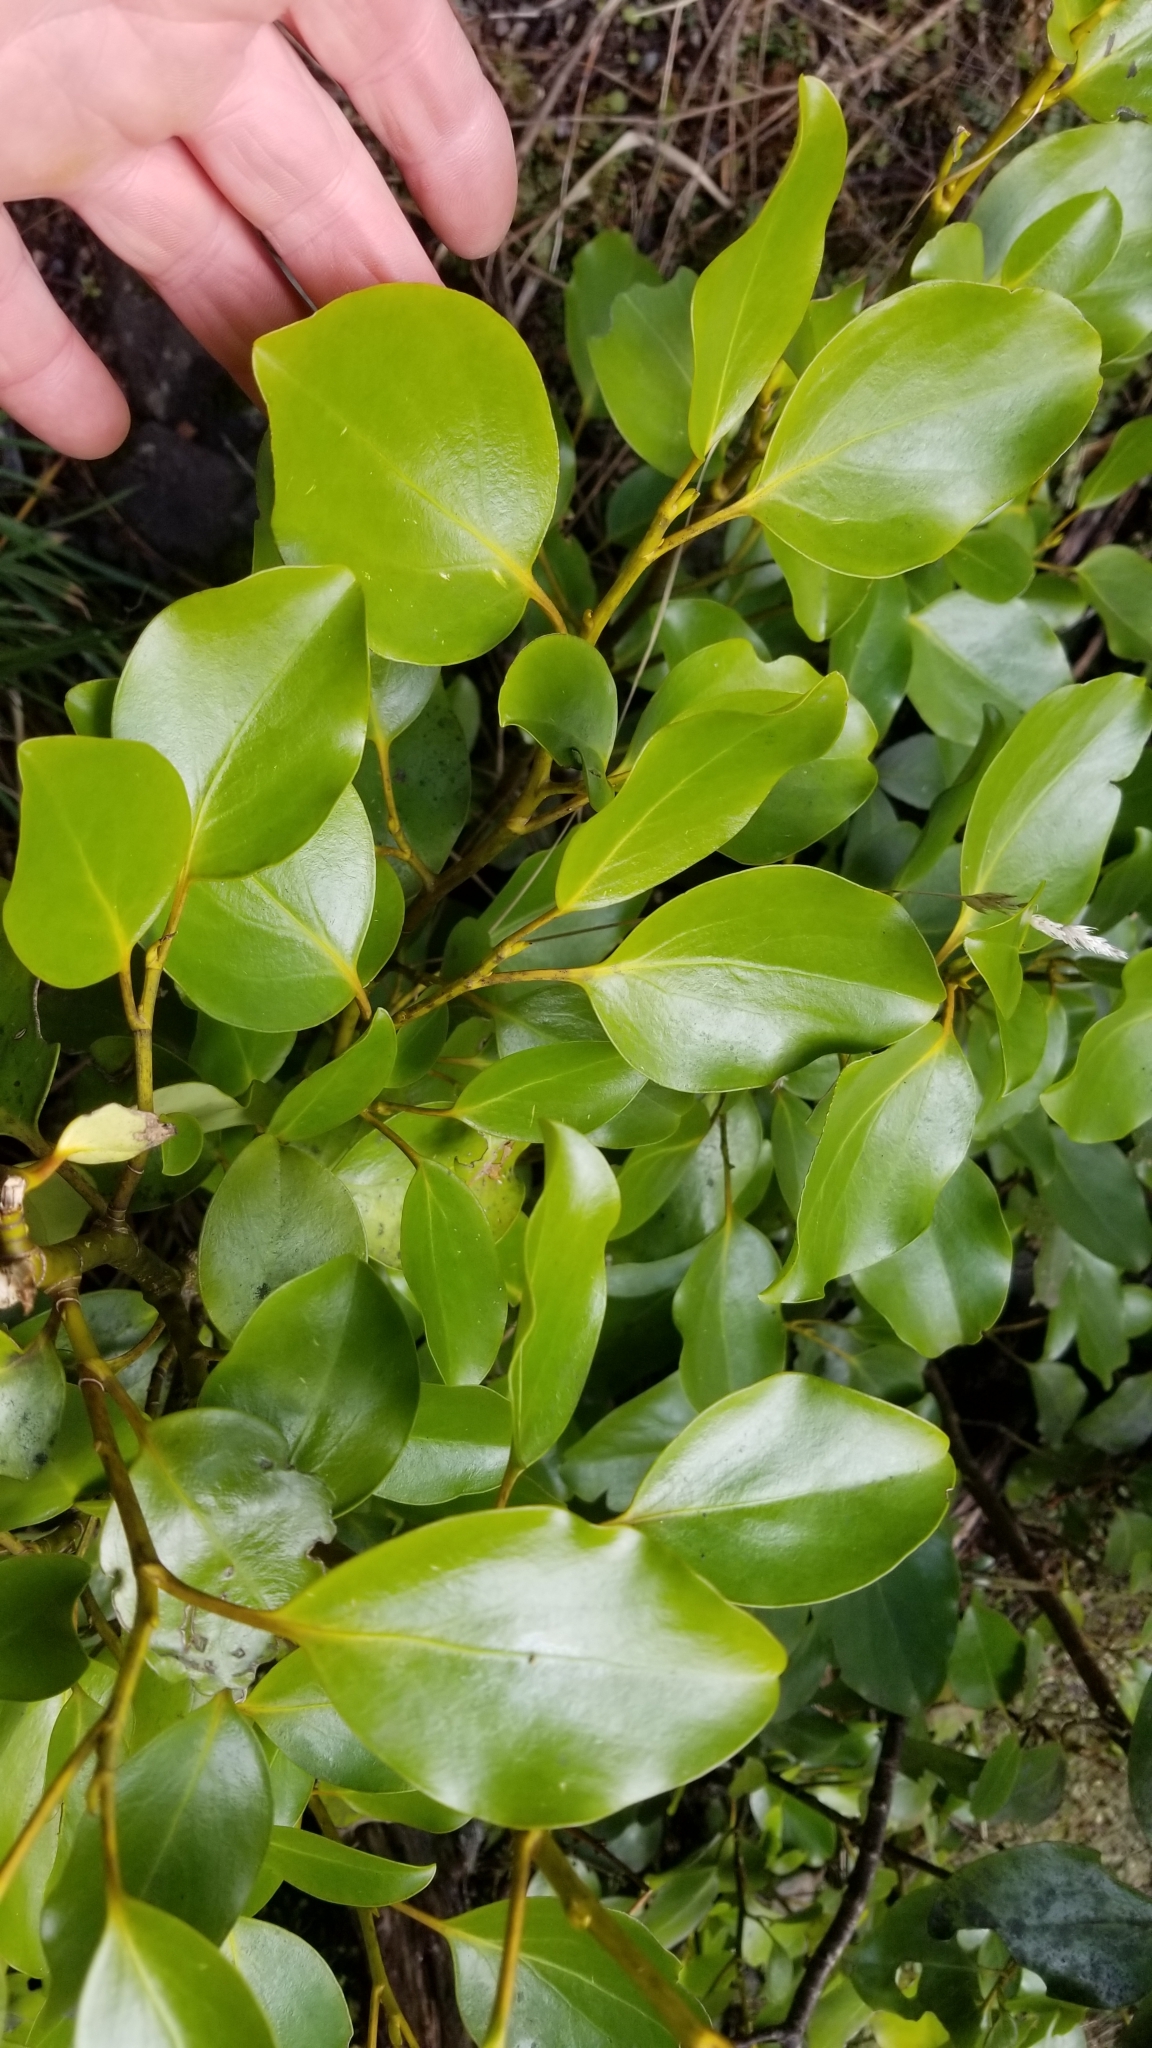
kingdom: Plantae
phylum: Tracheophyta
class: Magnoliopsida
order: Apiales
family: Griseliniaceae
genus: Griselinia
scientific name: Griselinia littoralis
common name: New zealand broadleaf
